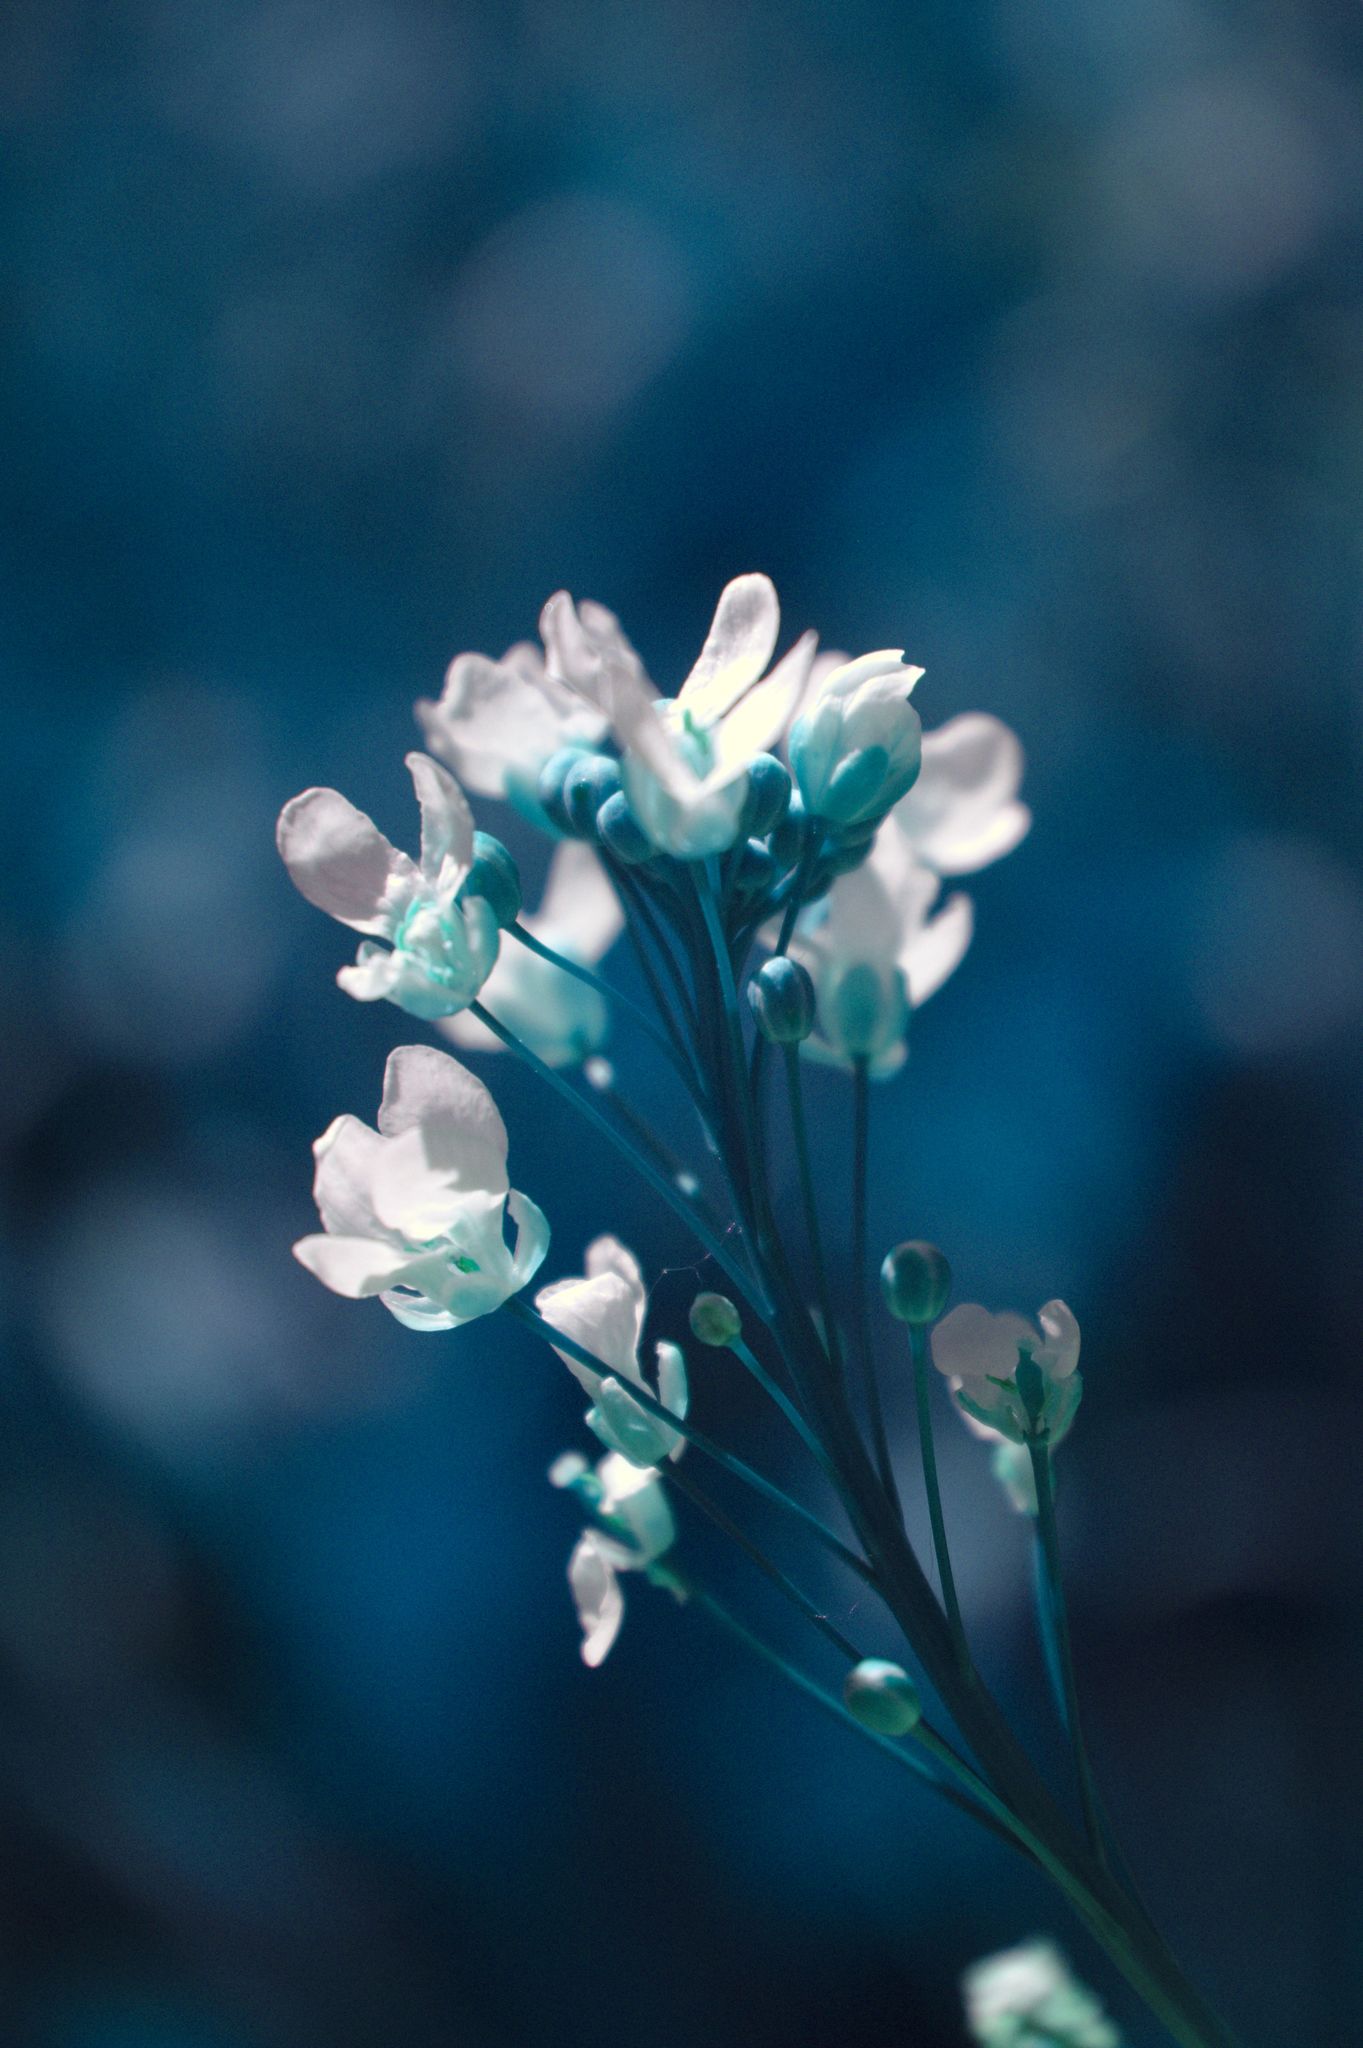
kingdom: Plantae
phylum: Tracheophyta
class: Magnoliopsida
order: Brassicales
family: Brassicaceae
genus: Armoracia
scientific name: Armoracia rusticana
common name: Horseradish
